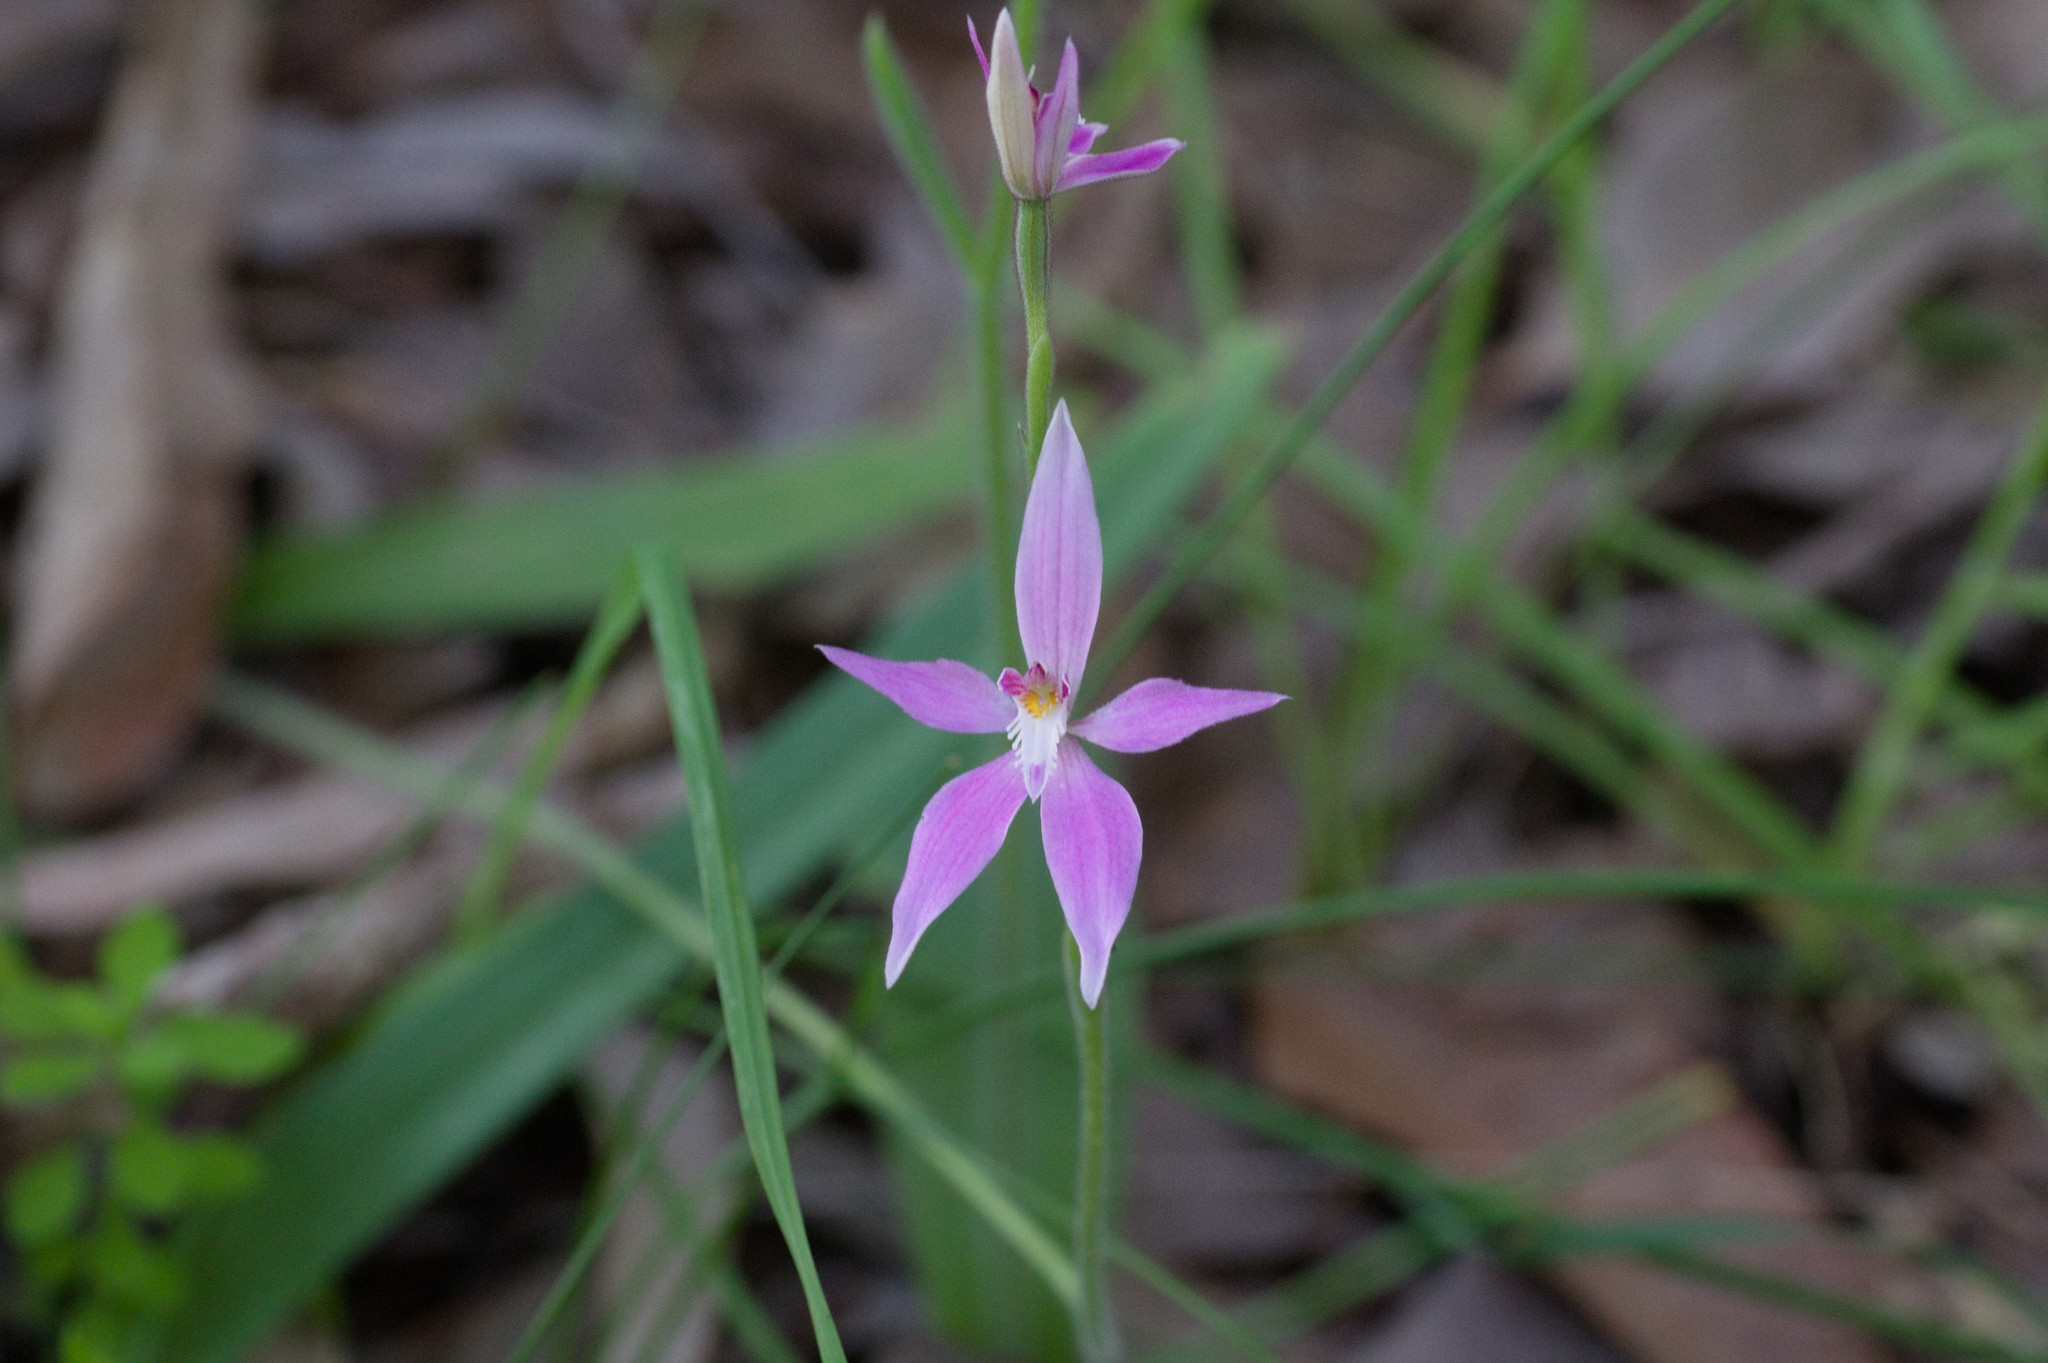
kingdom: Plantae
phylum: Tracheophyta
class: Liliopsida
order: Asparagales
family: Orchidaceae
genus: Caladenia
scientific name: Caladenia latifolia
